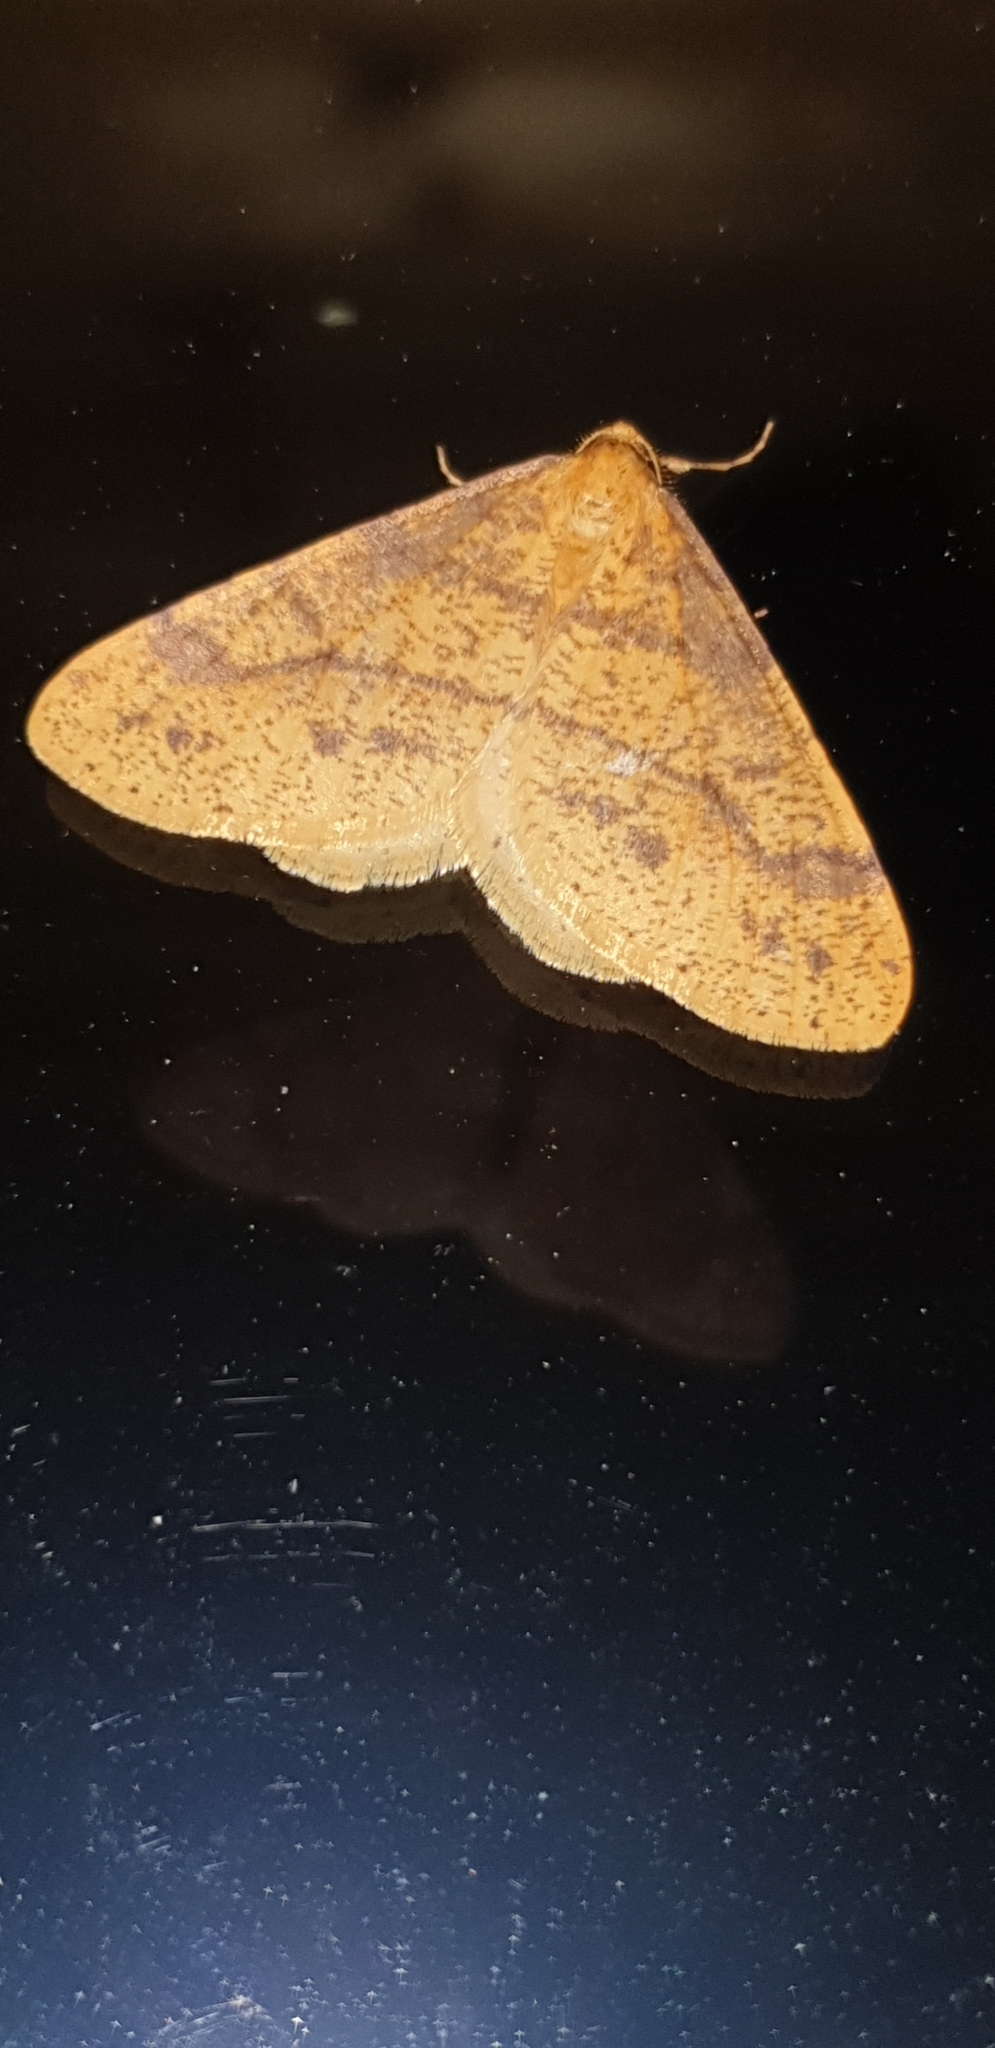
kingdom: Animalia
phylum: Arthropoda
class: Insecta
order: Lepidoptera
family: Geometridae
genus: Agriopis
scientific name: Agriopis aurantiaria
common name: Scarce umber
